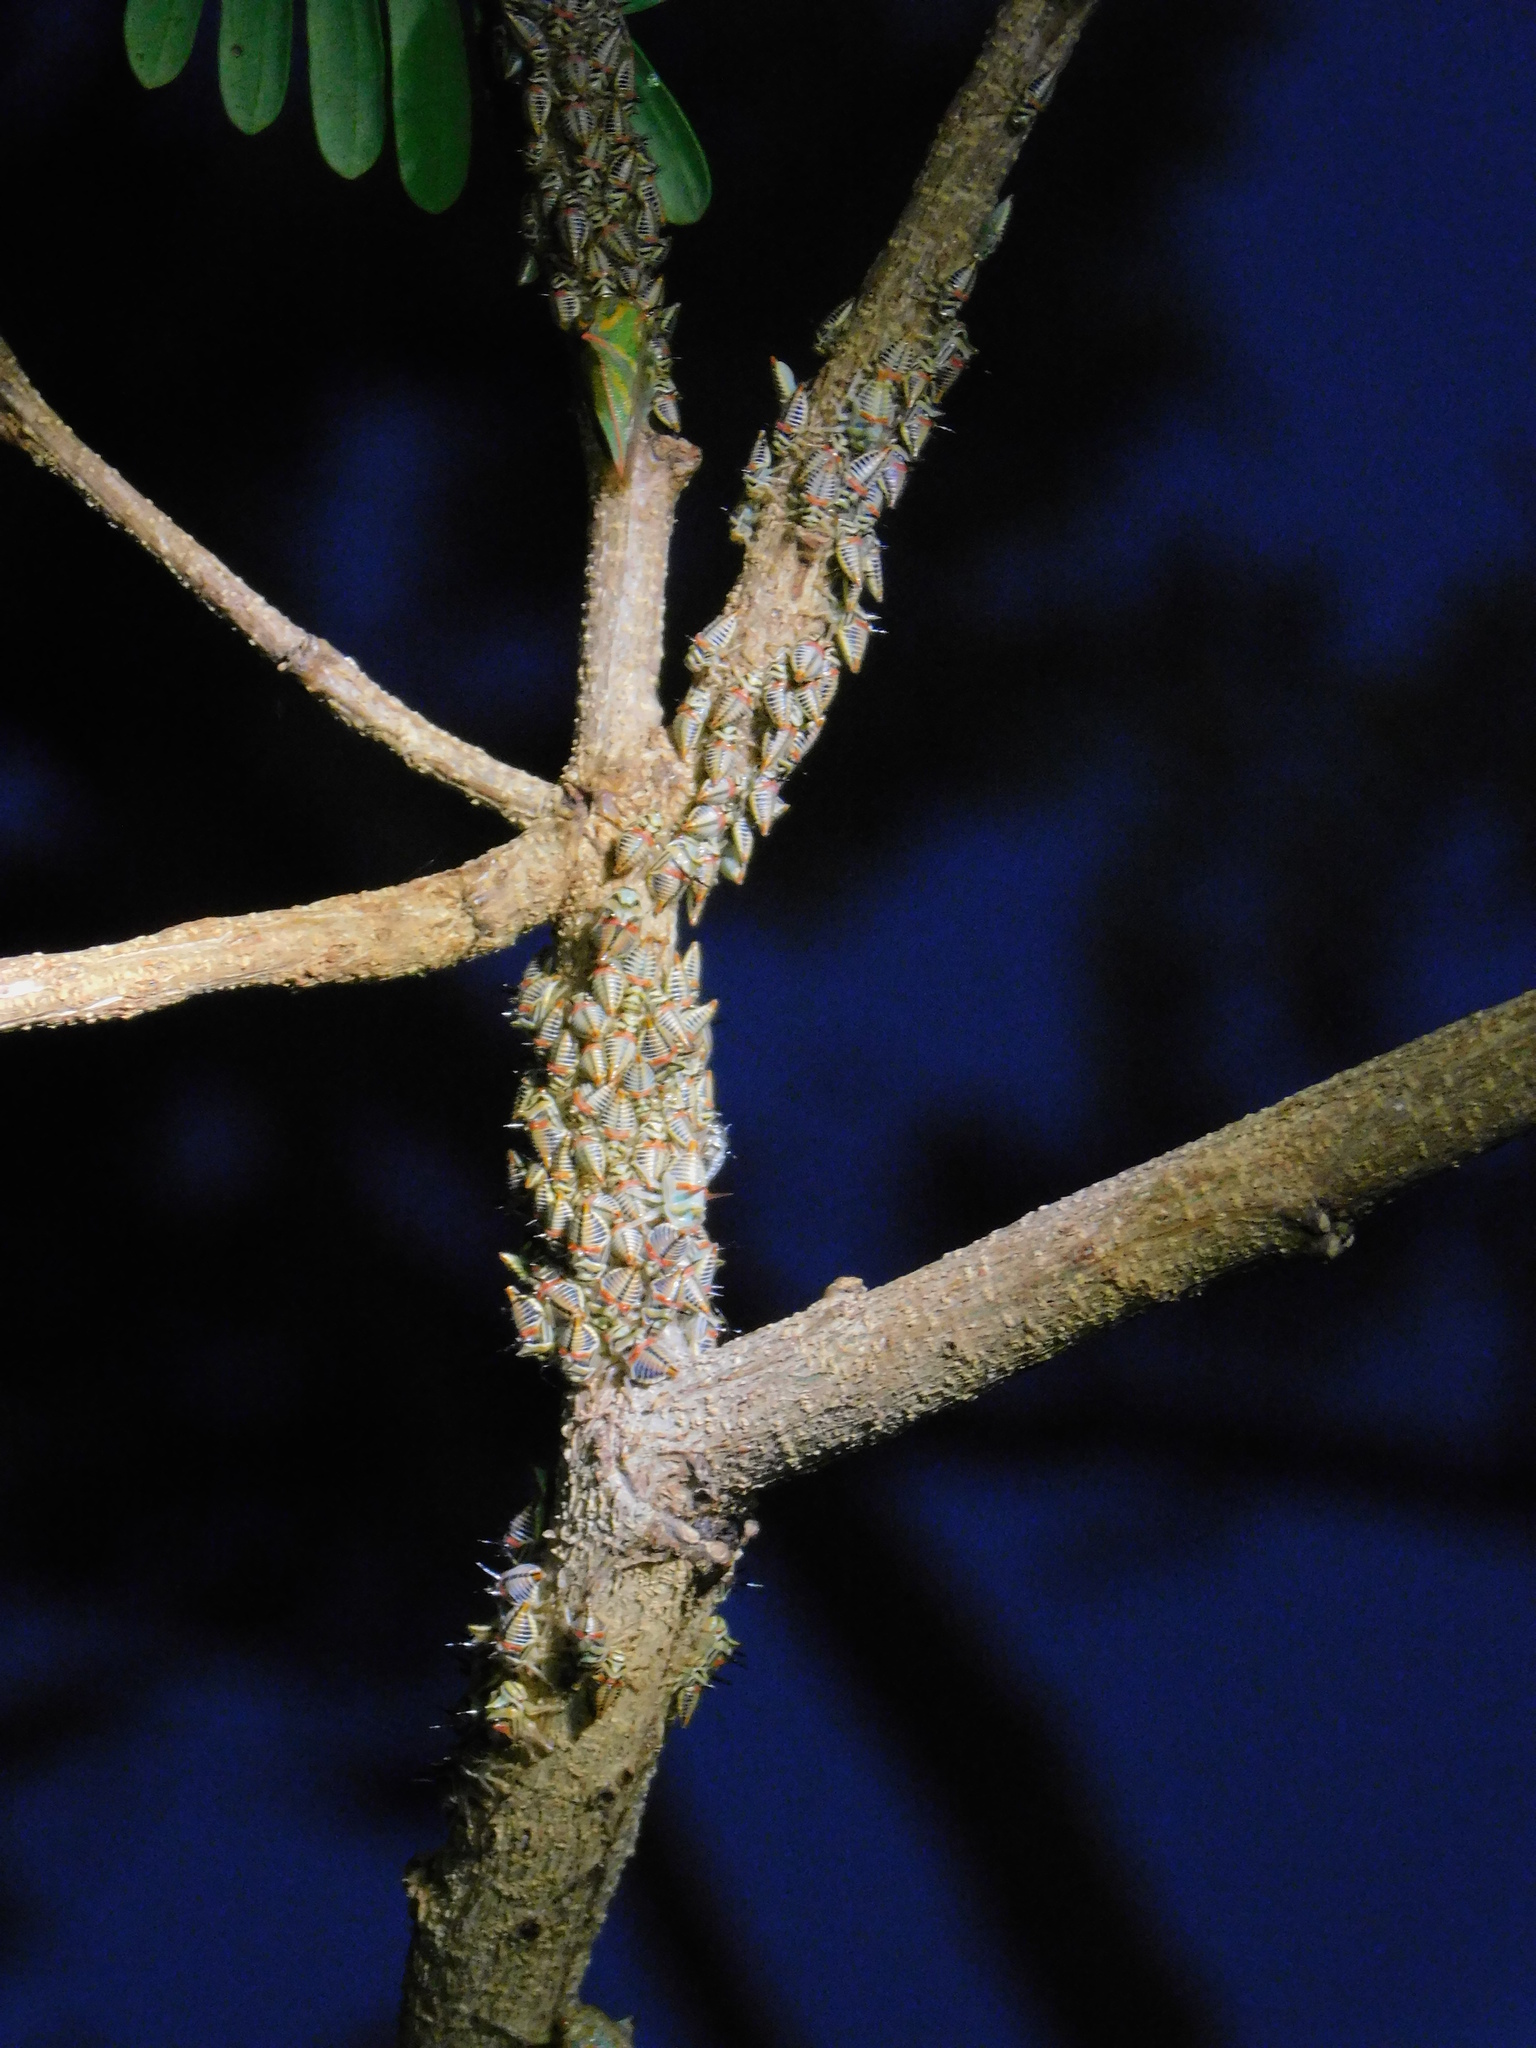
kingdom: Animalia
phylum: Arthropoda
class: Insecta
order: Hemiptera
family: Membracidae
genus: Umbonia
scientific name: Umbonia crassicornis
